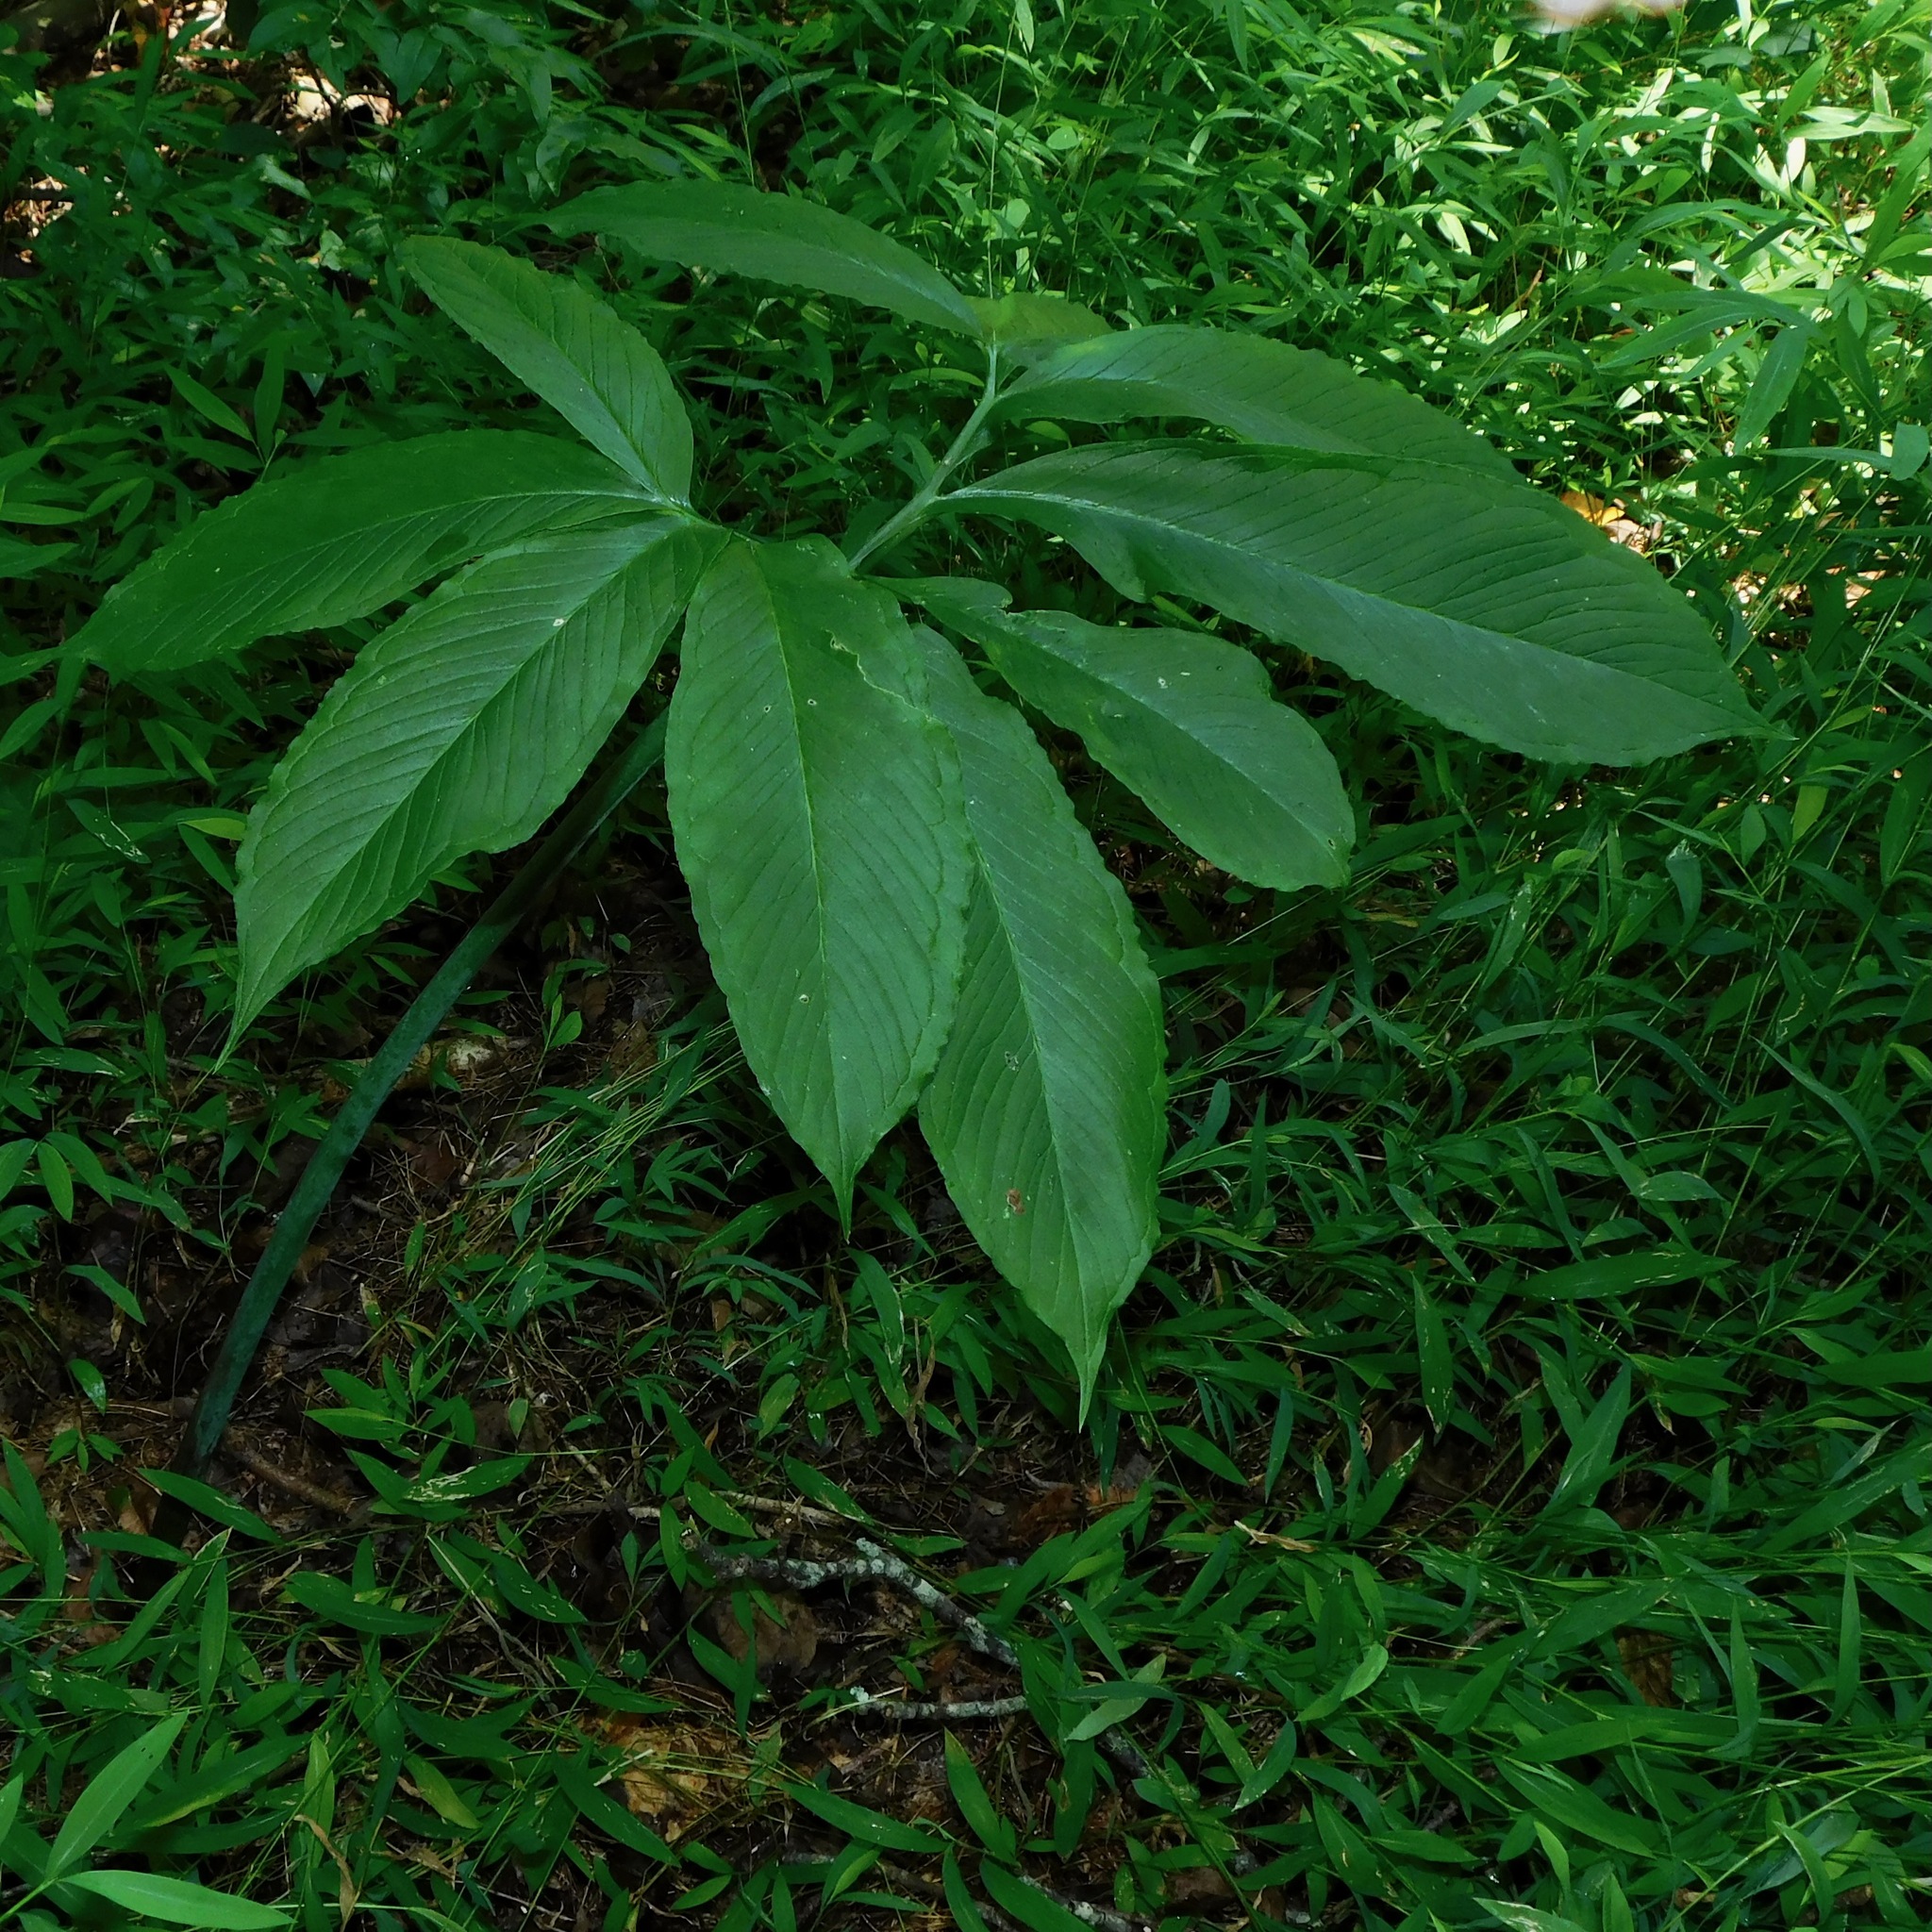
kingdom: Plantae
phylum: Tracheophyta
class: Liliopsida
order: Alismatales
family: Araceae
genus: Arisaema
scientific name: Arisaema dracontium
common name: Dragon-arum
